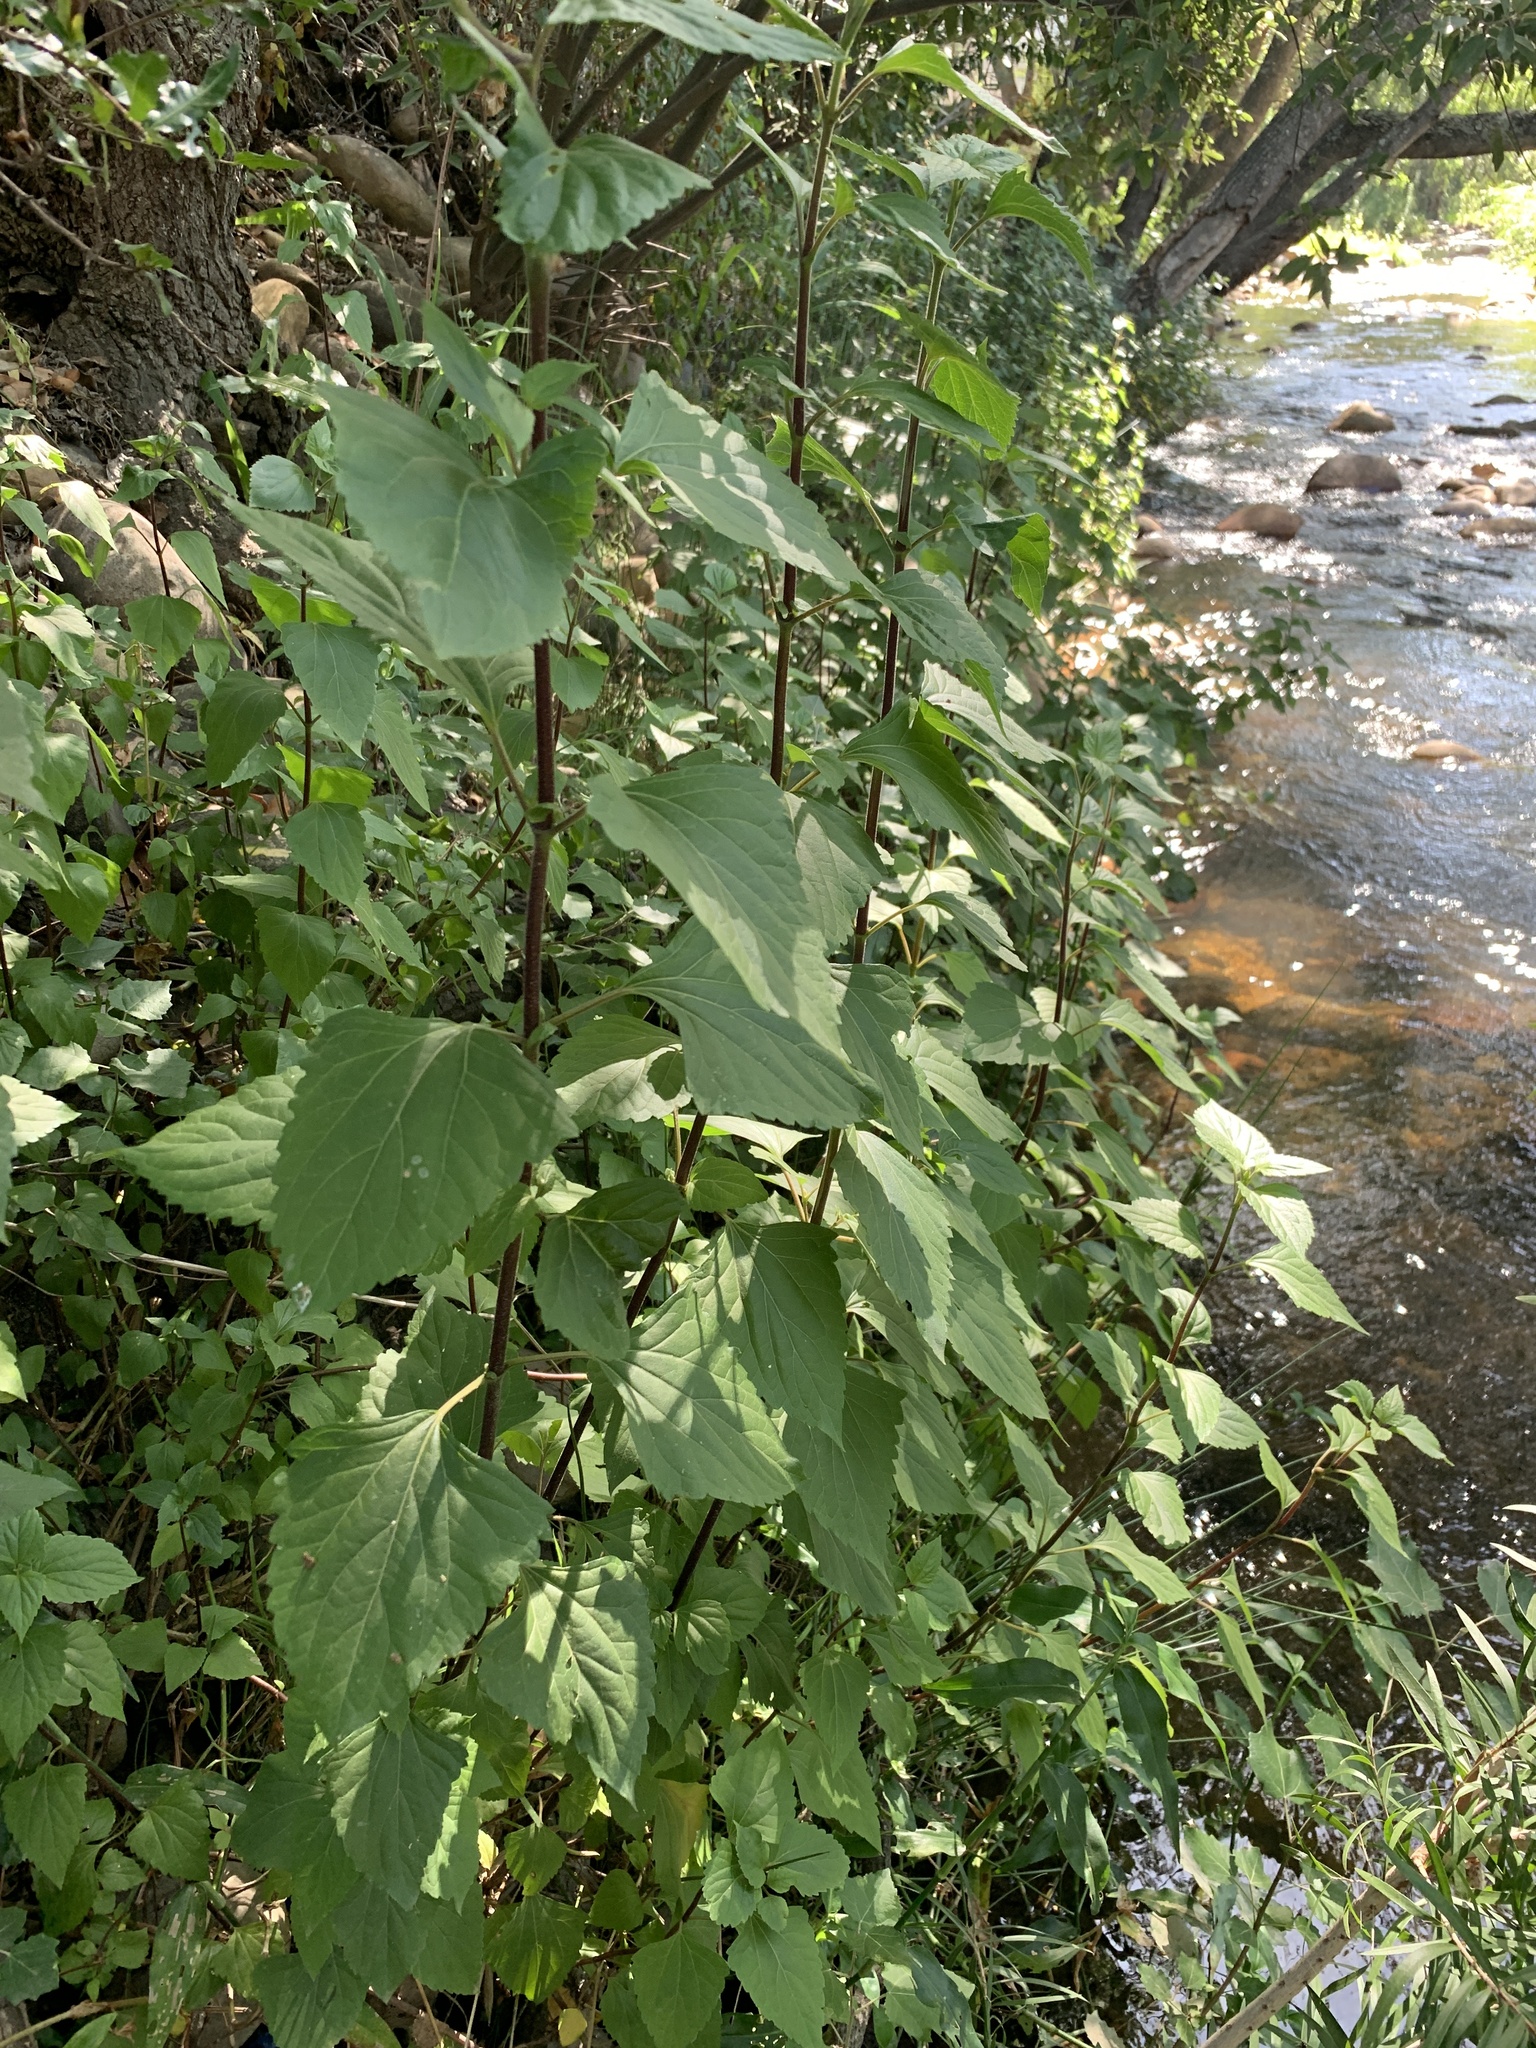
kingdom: Plantae
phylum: Tracheophyta
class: Magnoliopsida
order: Asterales
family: Asteraceae
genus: Ageratina
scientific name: Ageratina adenophora
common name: Sticky snakeroot
